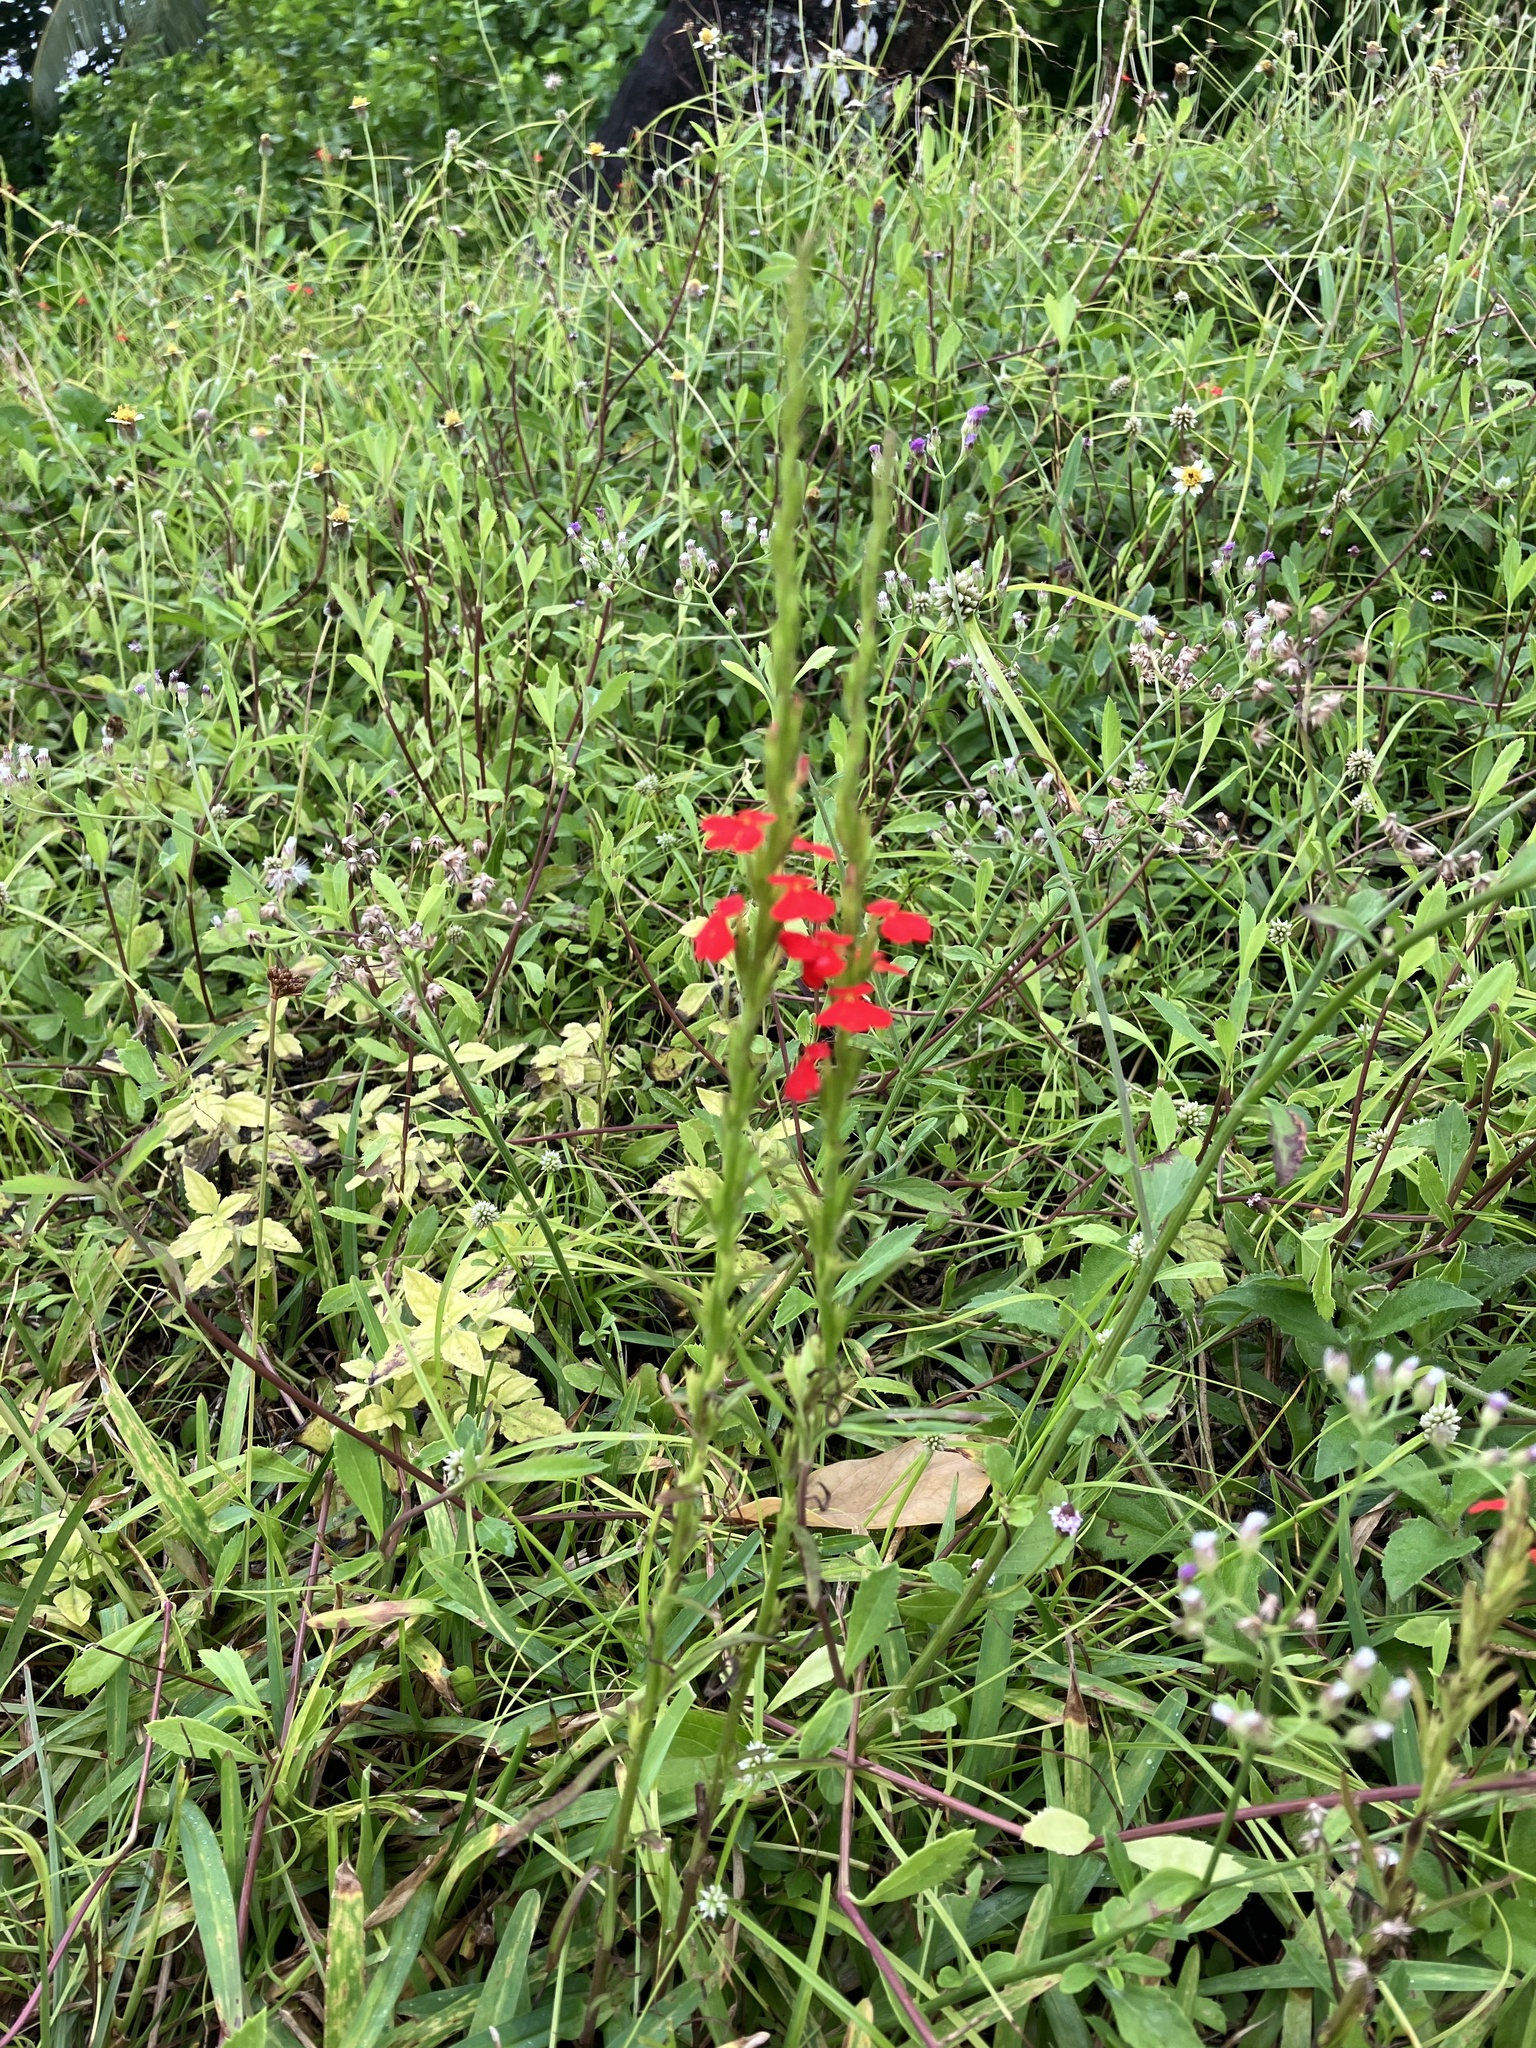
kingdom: Plantae
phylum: Tracheophyta
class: Magnoliopsida
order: Lamiales
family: Orobanchaceae
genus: Striga
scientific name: Striga asiatica
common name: Asiatic witchweed
